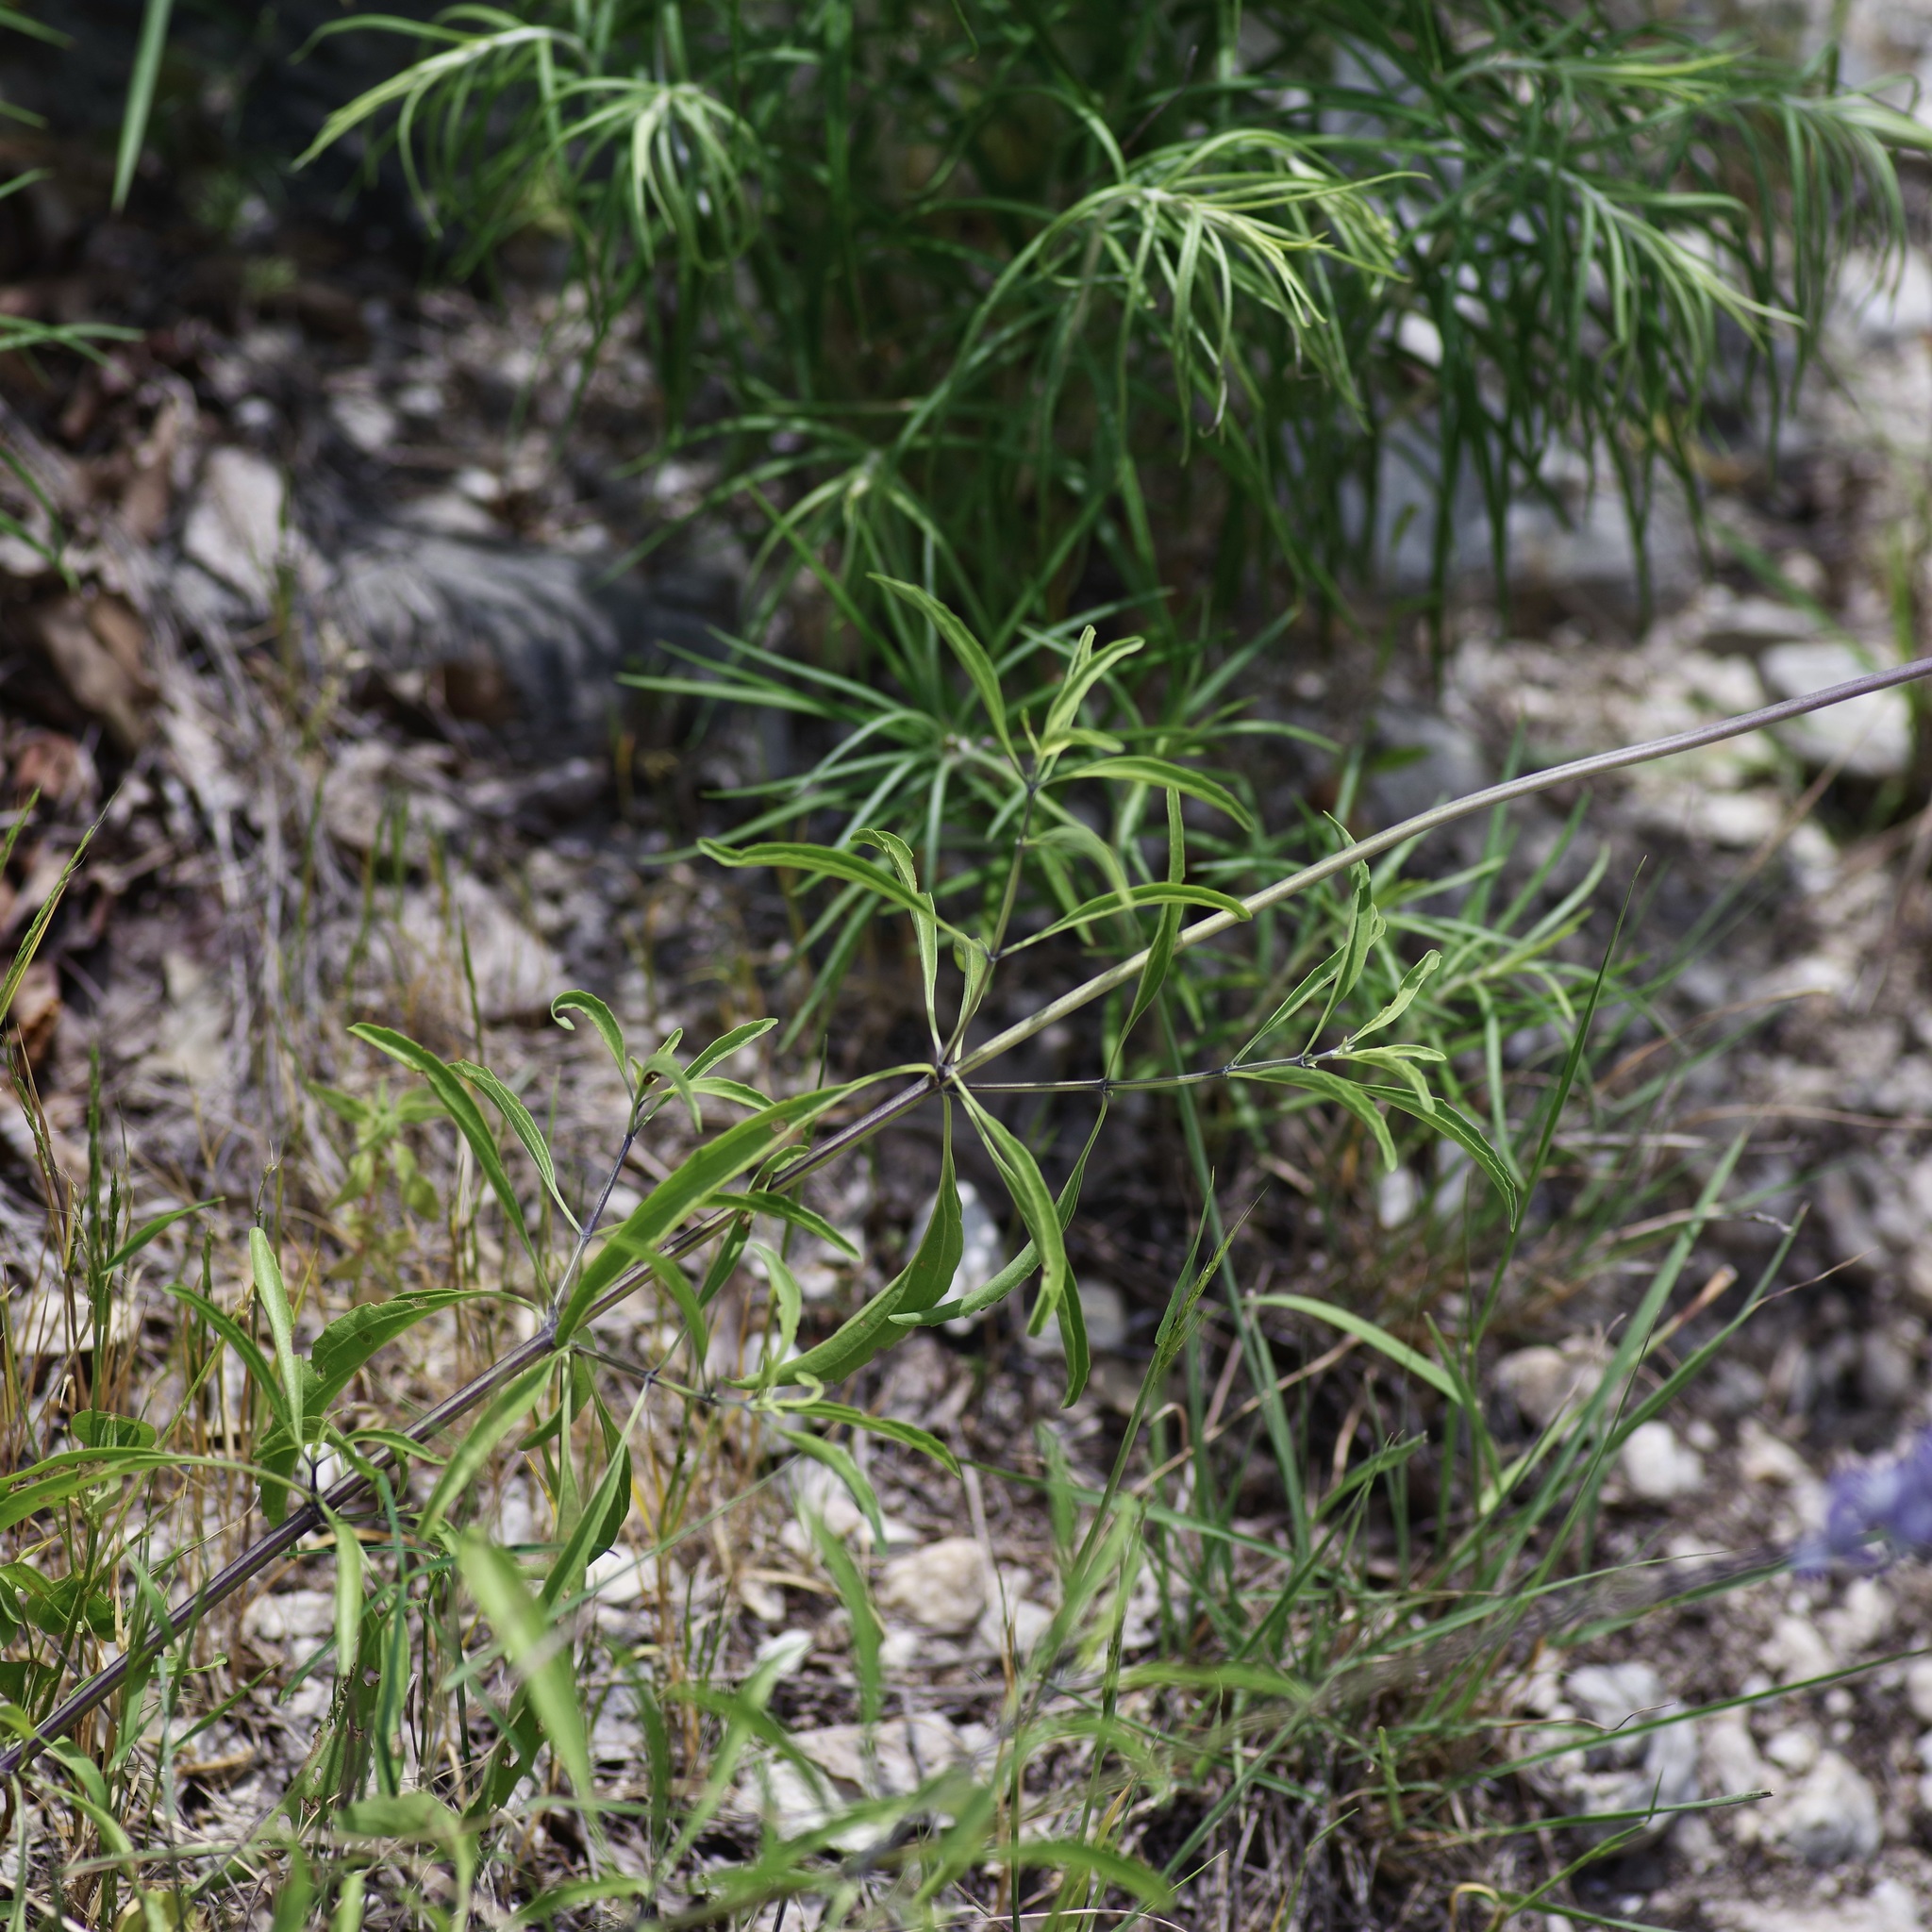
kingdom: Plantae
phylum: Tracheophyta
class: Magnoliopsida
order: Lamiales
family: Lamiaceae
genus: Salvia
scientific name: Salvia farinacea
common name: Mealy sage
